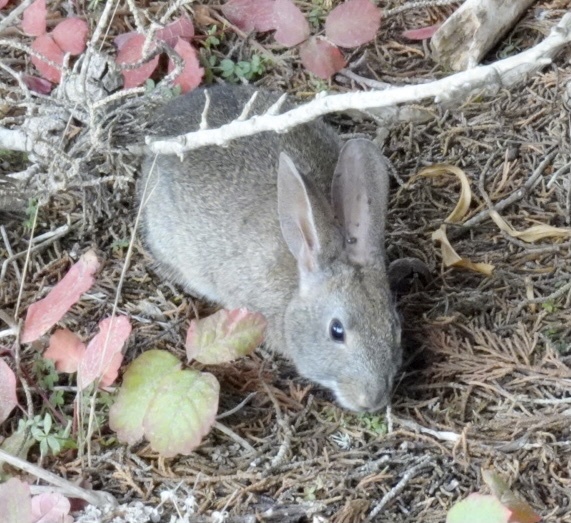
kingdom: Animalia
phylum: Chordata
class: Mammalia
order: Lagomorpha
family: Leporidae
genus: Sylvilagus
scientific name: Sylvilagus bachmani
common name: Brush rabbit
